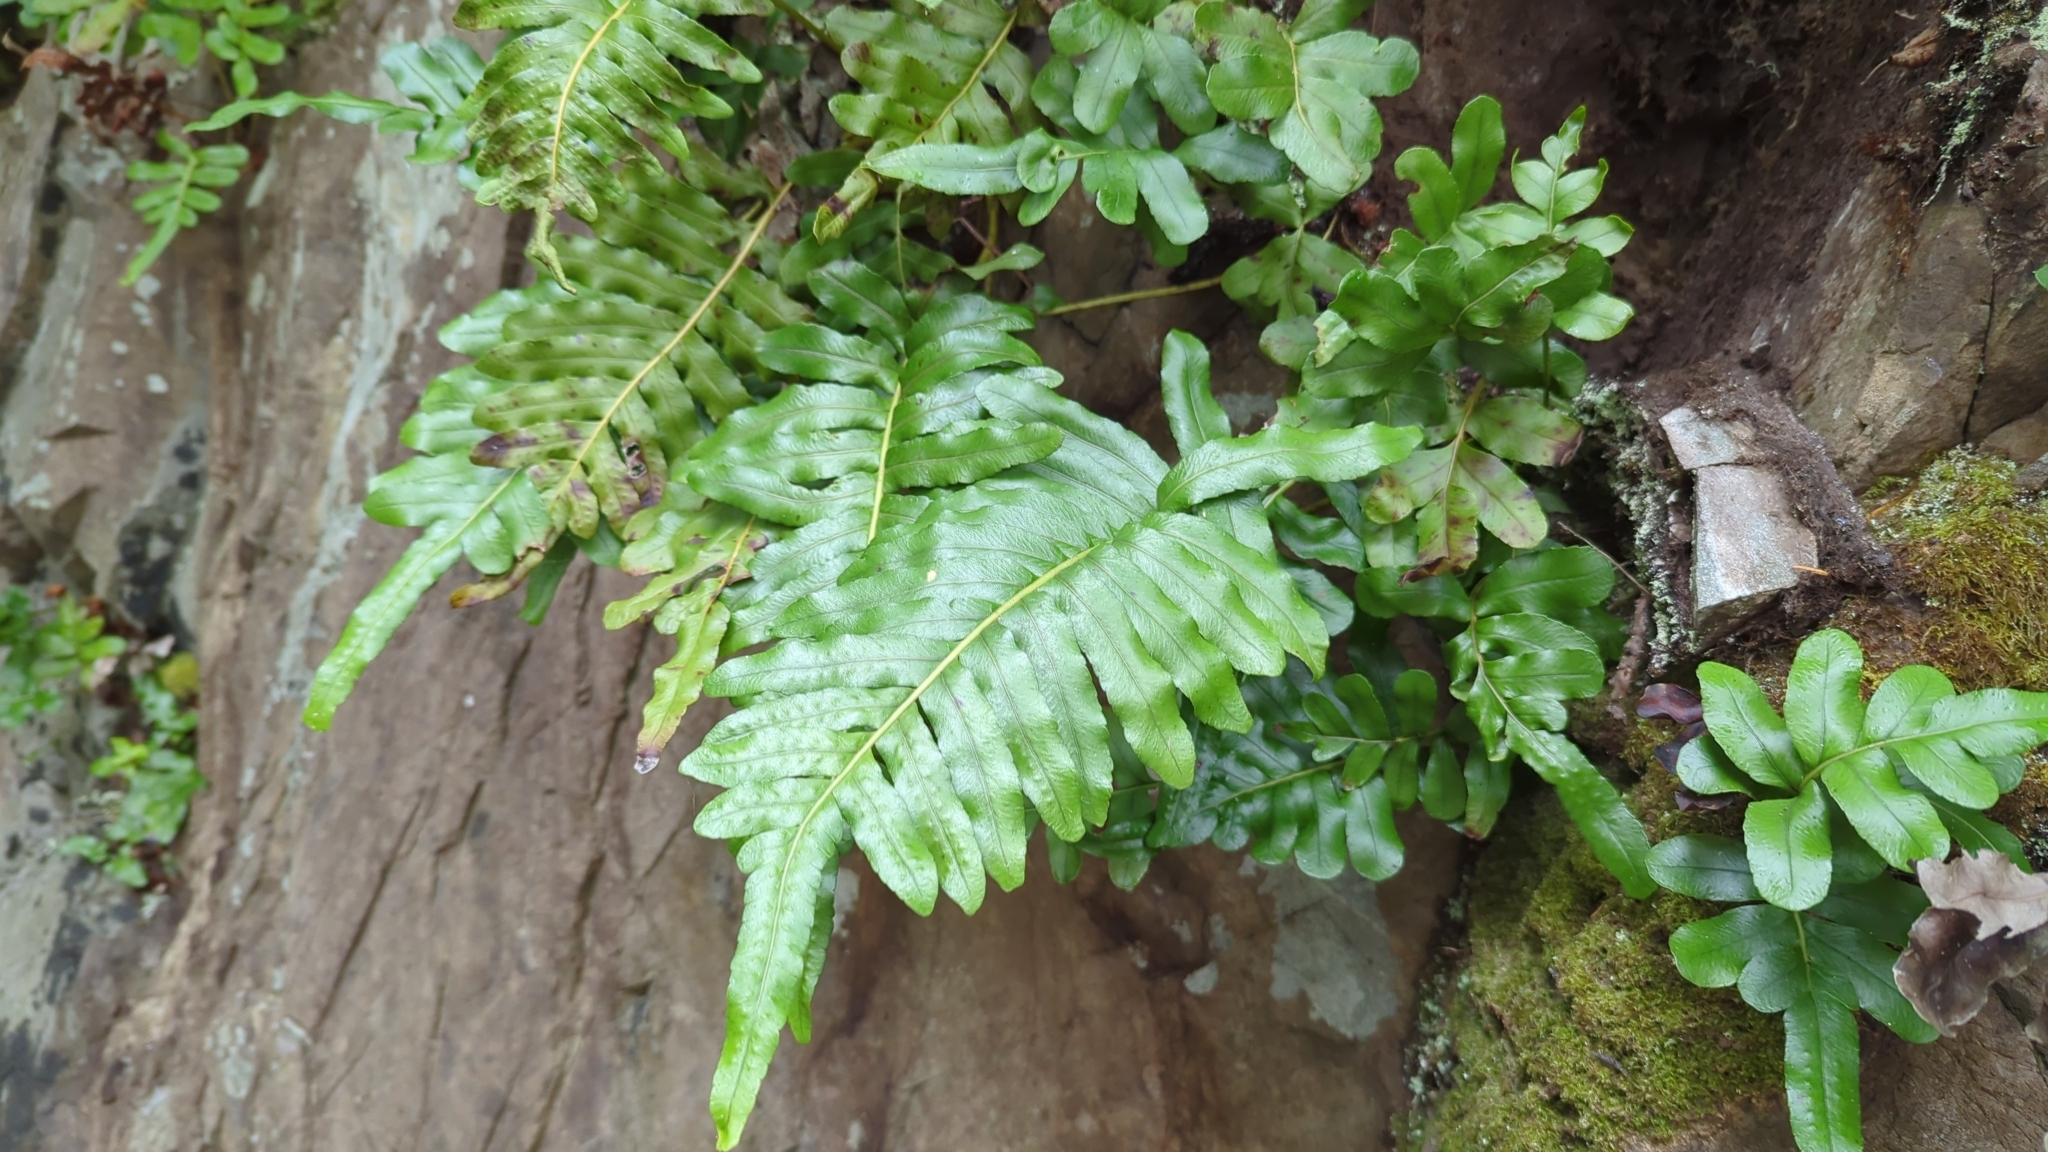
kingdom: Plantae
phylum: Tracheophyta
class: Polypodiopsida
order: Polypodiales
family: Polypodiaceae
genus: Polypodium
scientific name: Polypodium scouleri
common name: Scouler's polypody
